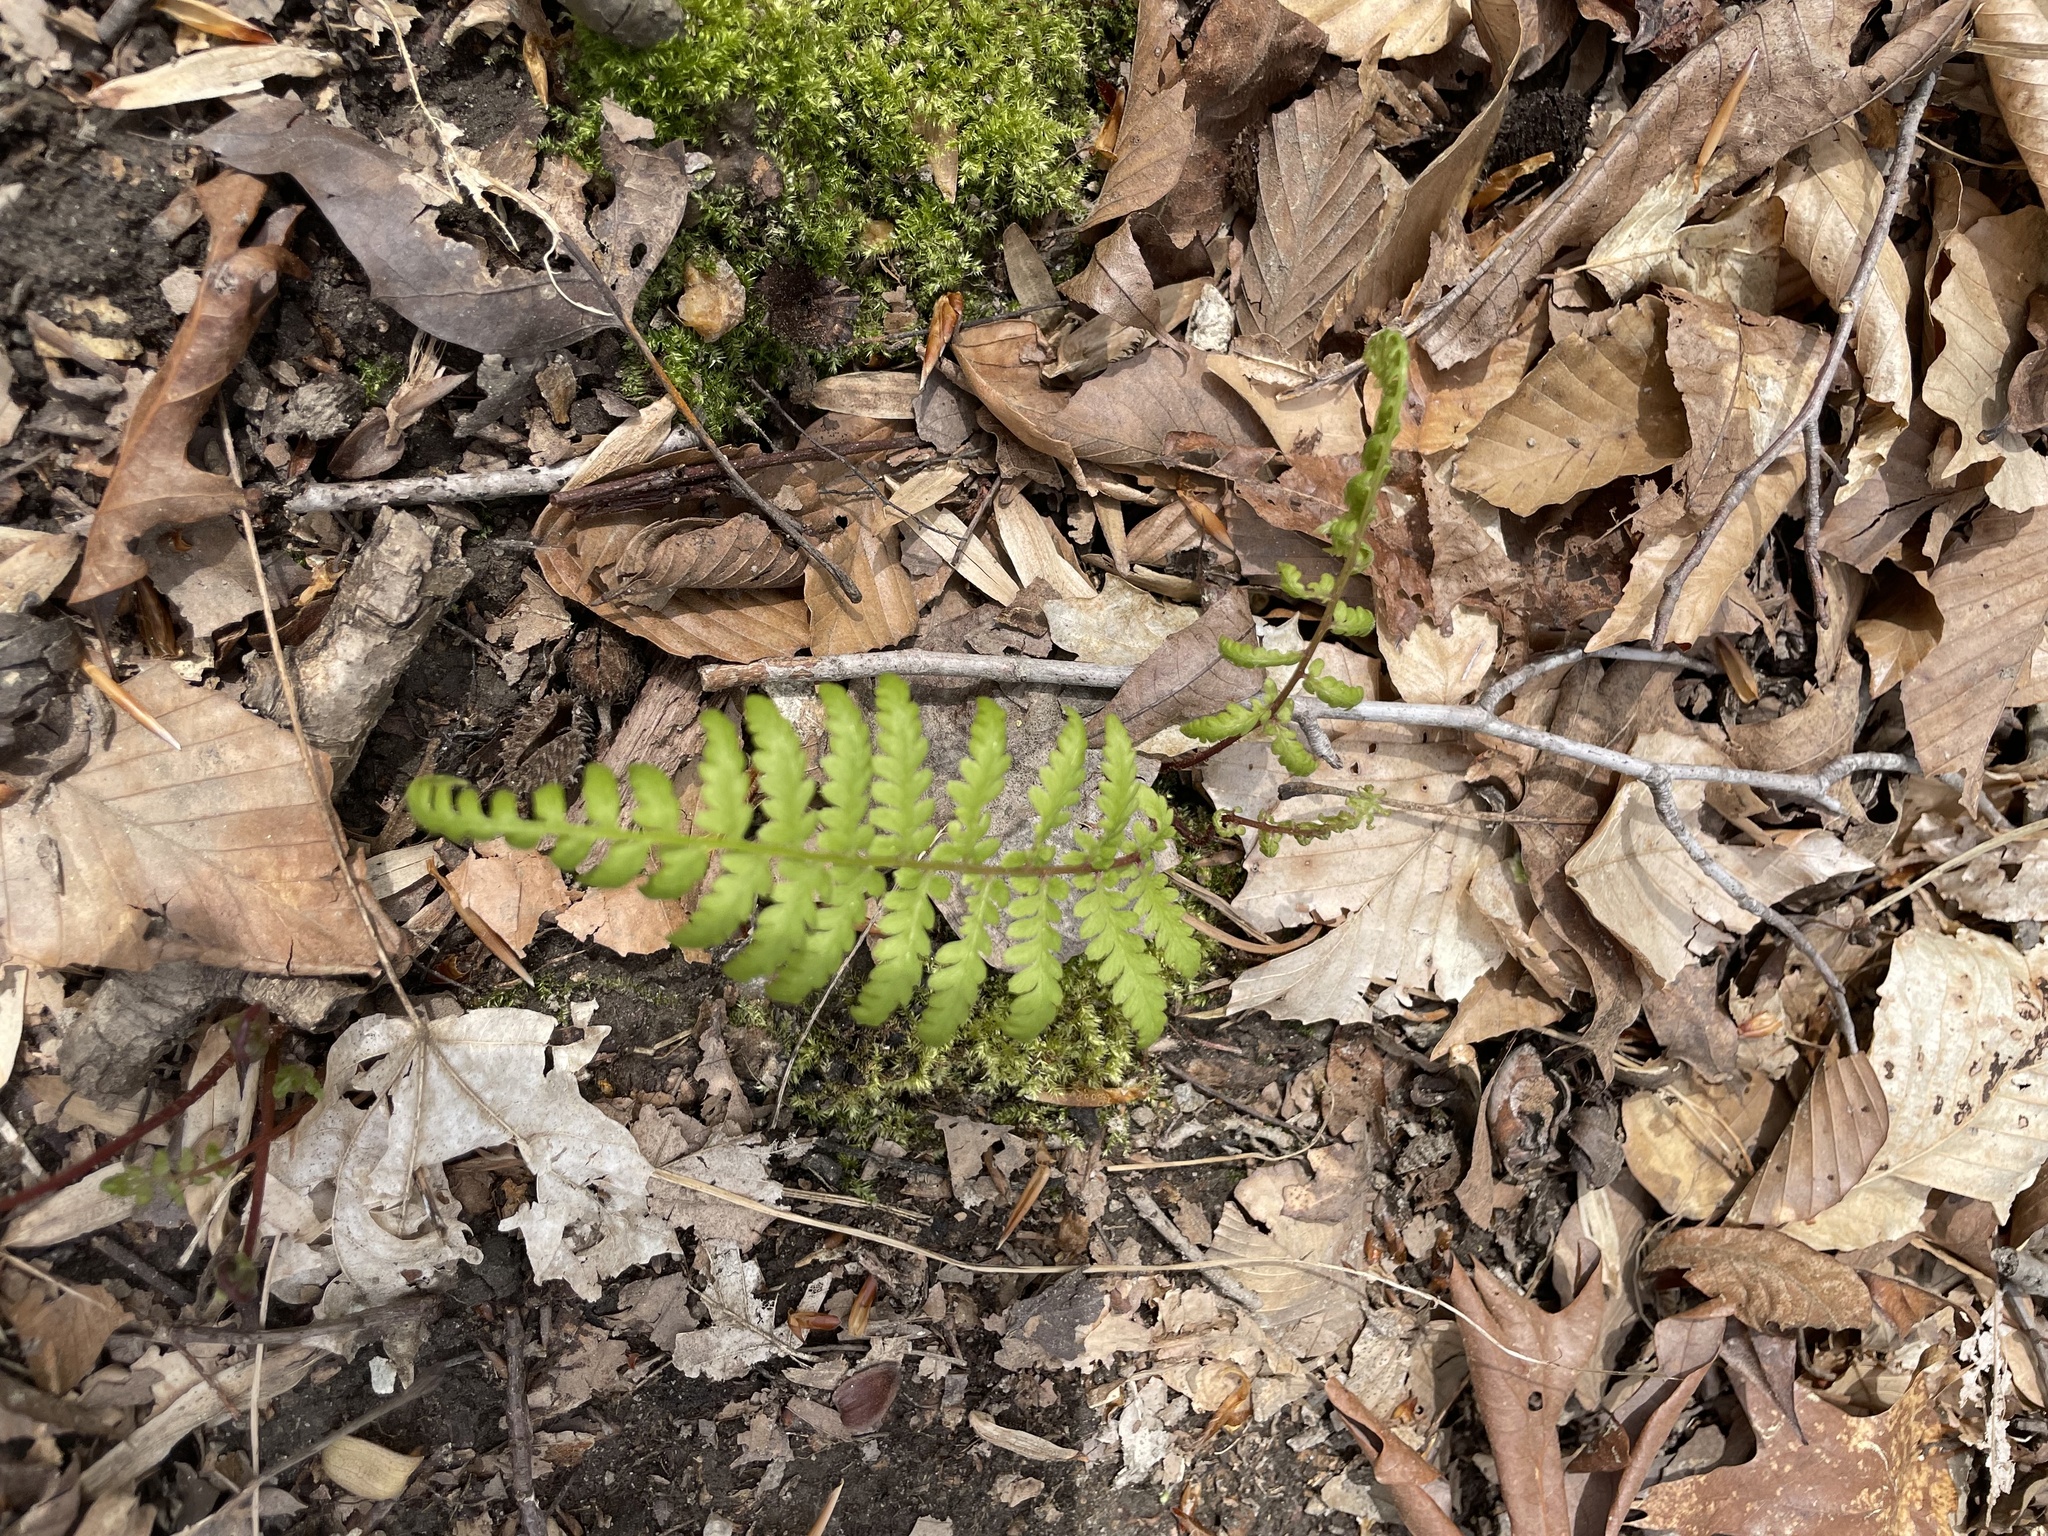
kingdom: Plantae
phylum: Tracheophyta
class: Polypodiopsida
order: Polypodiales
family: Athyriaceae
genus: Athyrium
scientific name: Athyrium asplenioides
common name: Southern lady fern
